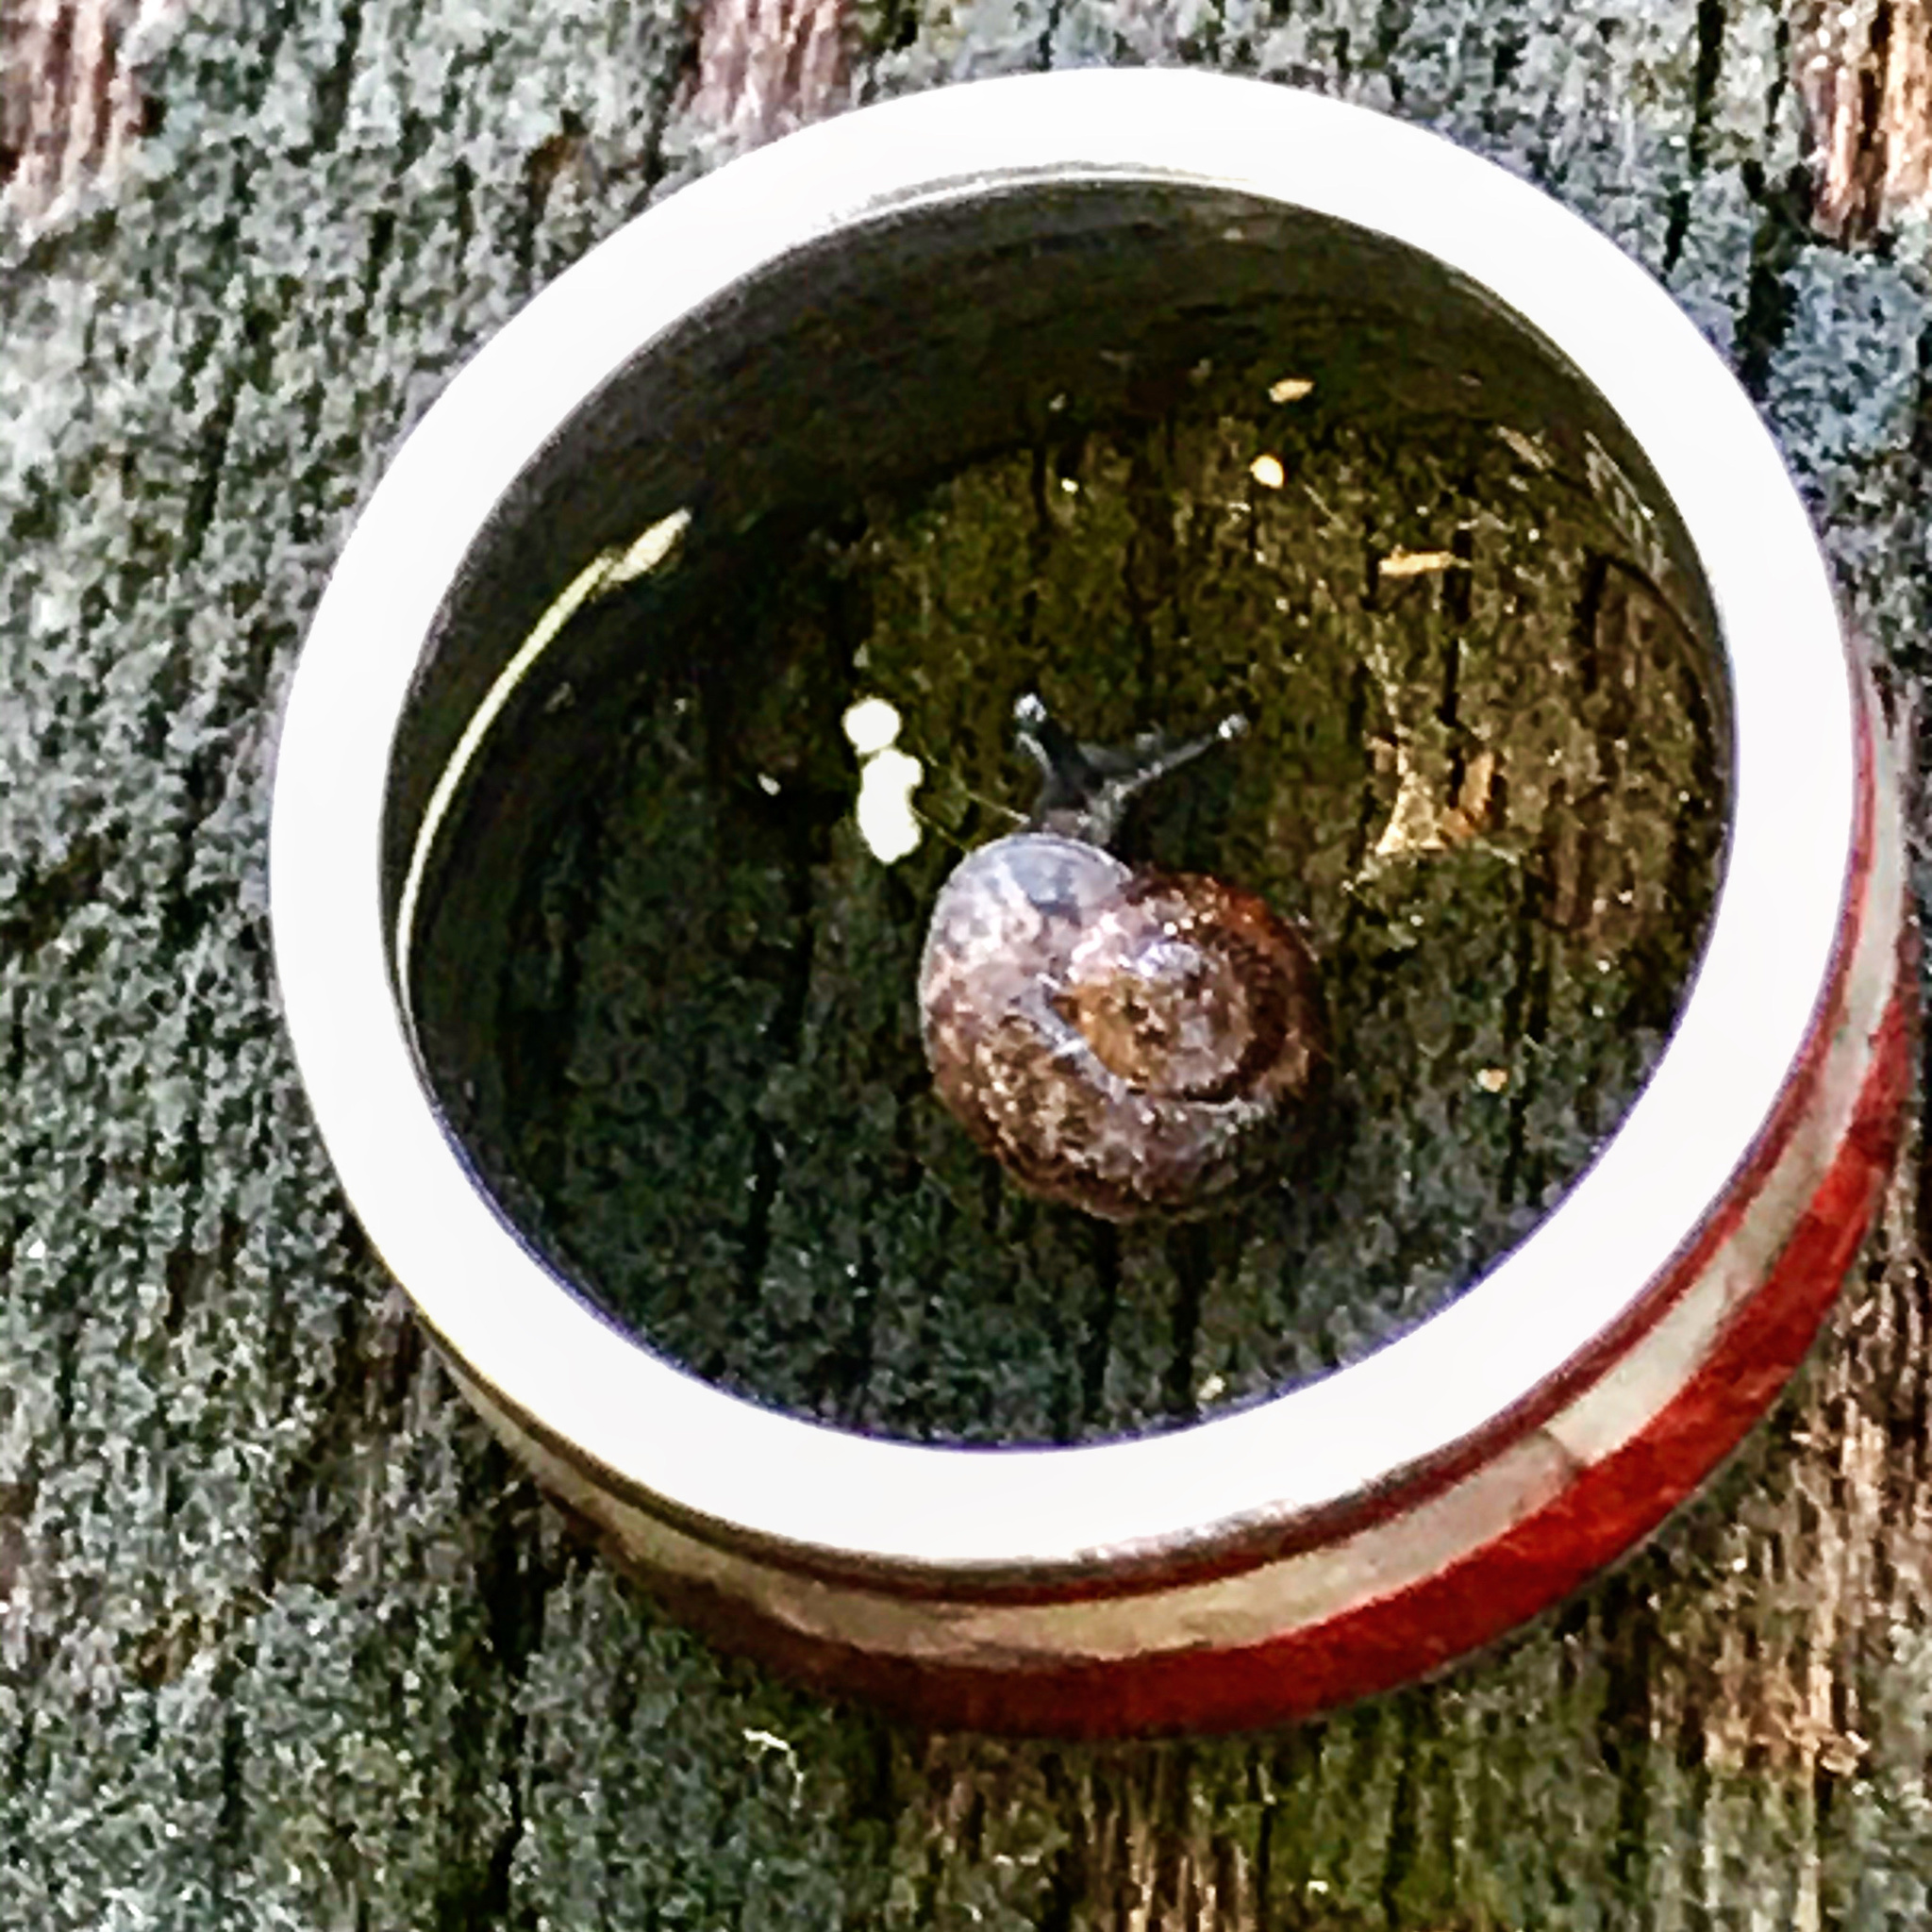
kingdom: Animalia
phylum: Mollusca
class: Gastropoda
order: Stylommatophora
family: Xanthonychidae
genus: Helminthoglypta
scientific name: Helminthoglypta
